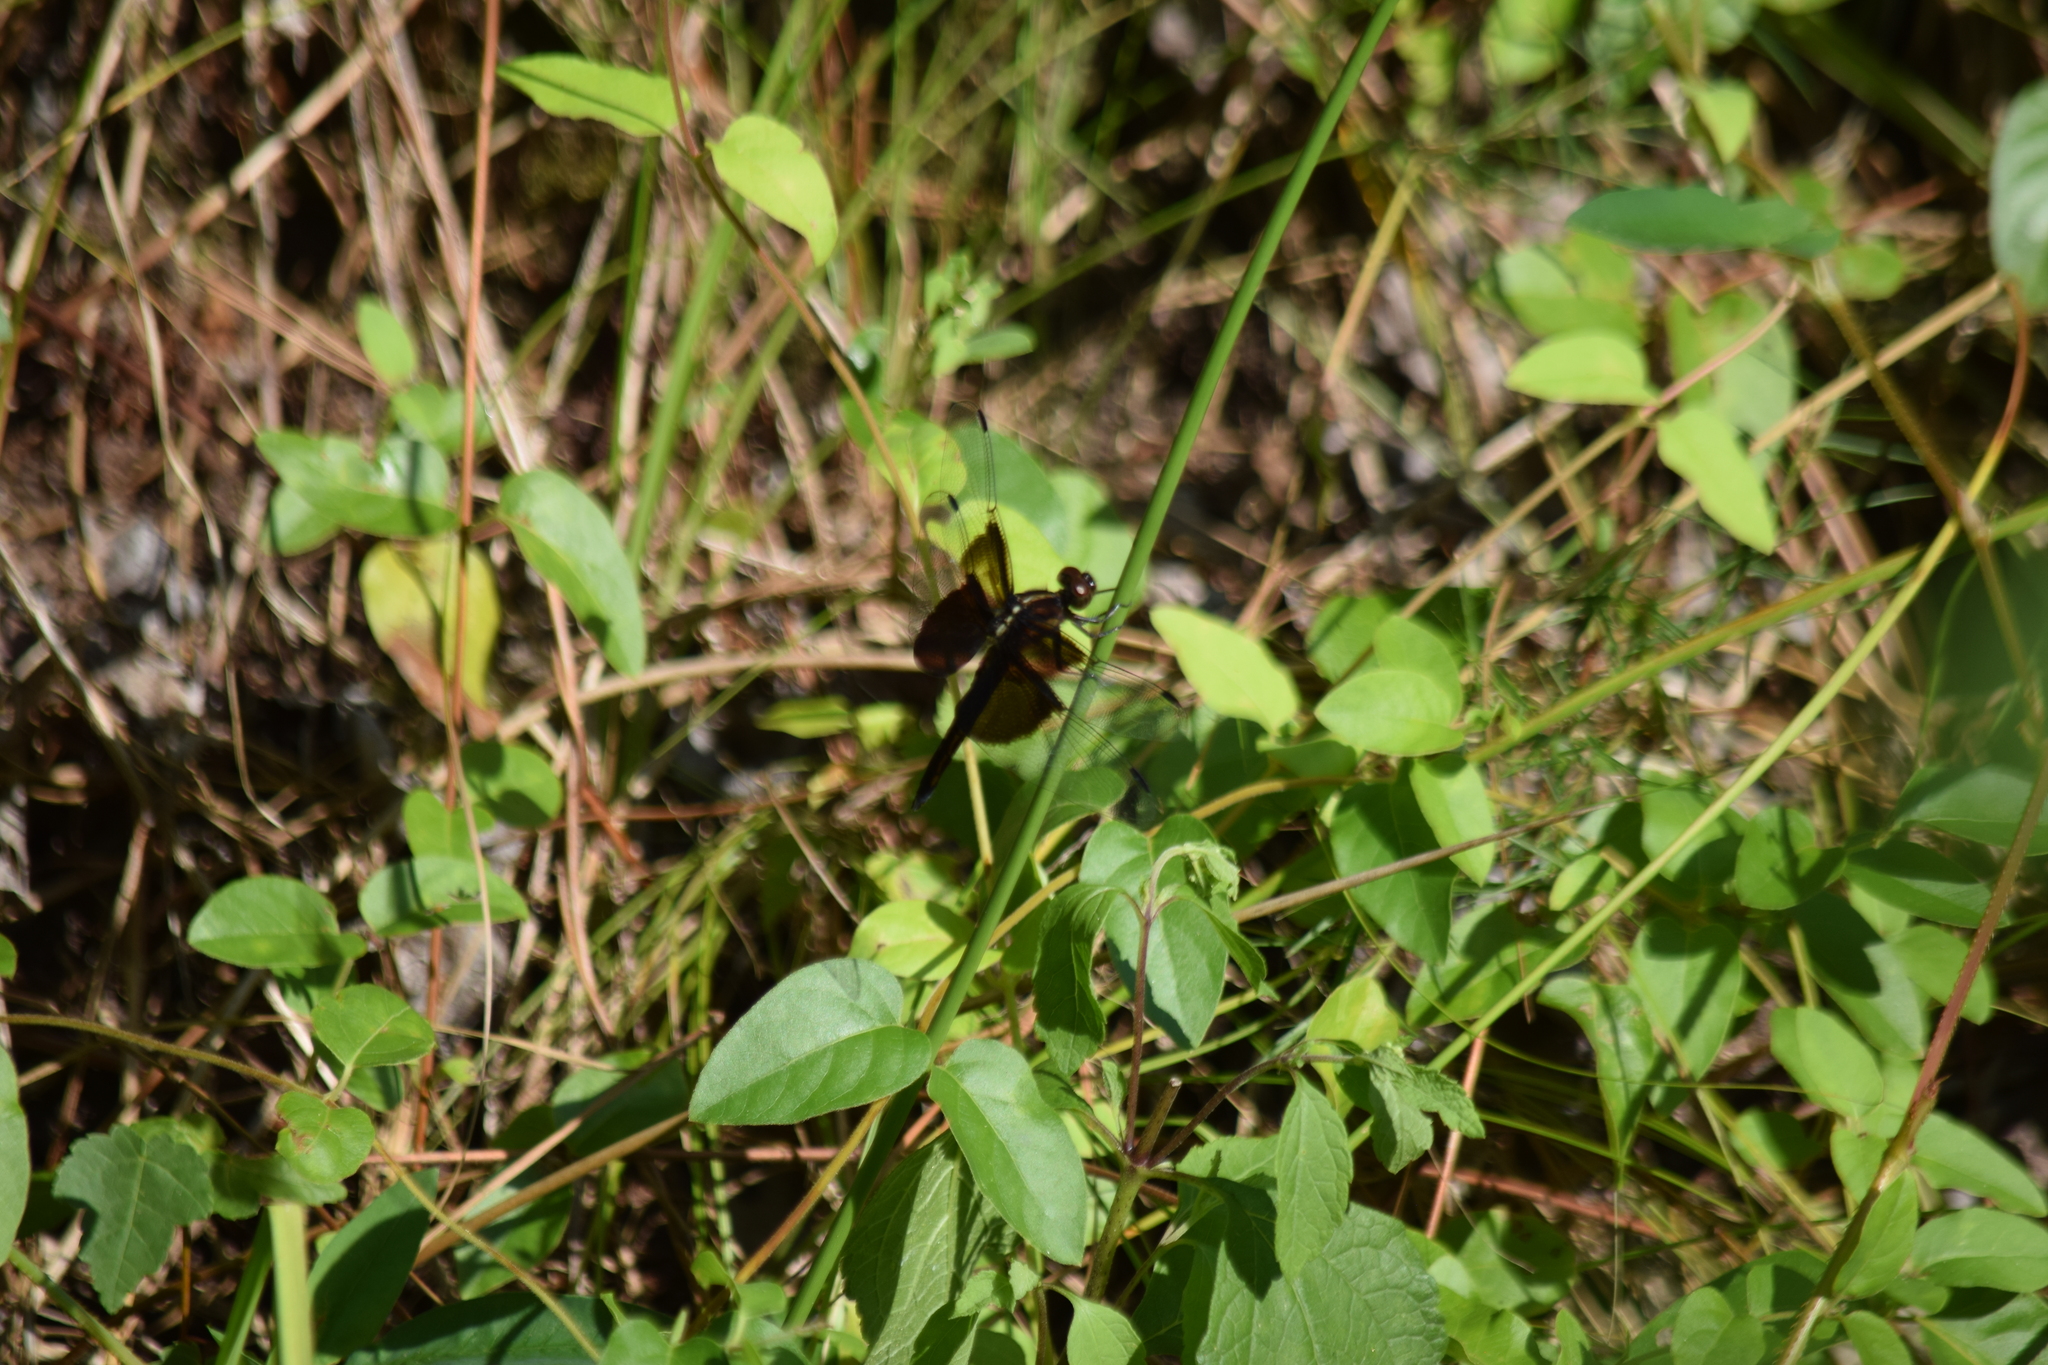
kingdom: Animalia
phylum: Arthropoda
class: Insecta
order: Odonata
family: Libellulidae
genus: Libellula
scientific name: Libellula luctuosa
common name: Widow skimmer
